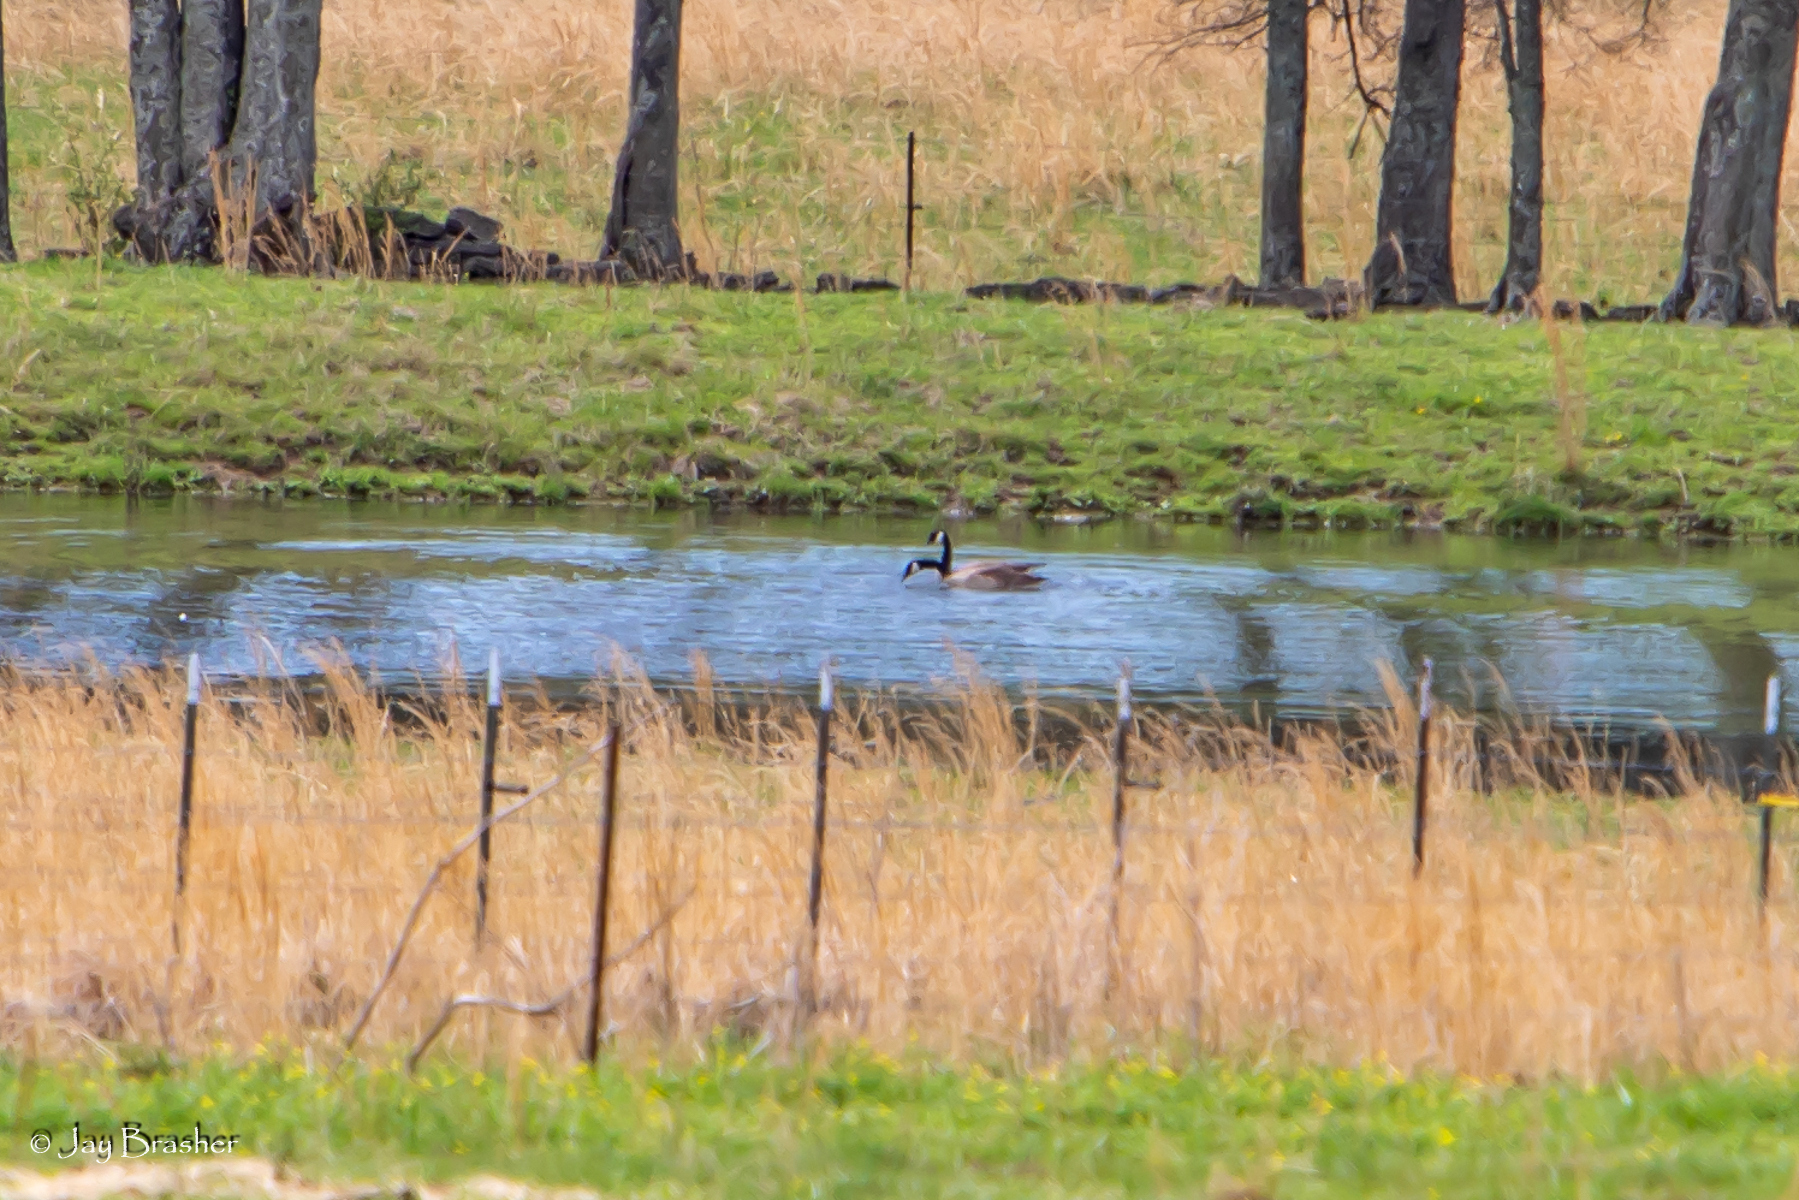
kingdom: Animalia
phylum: Chordata
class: Aves
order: Anseriformes
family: Anatidae
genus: Branta
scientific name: Branta canadensis
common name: Canada goose
